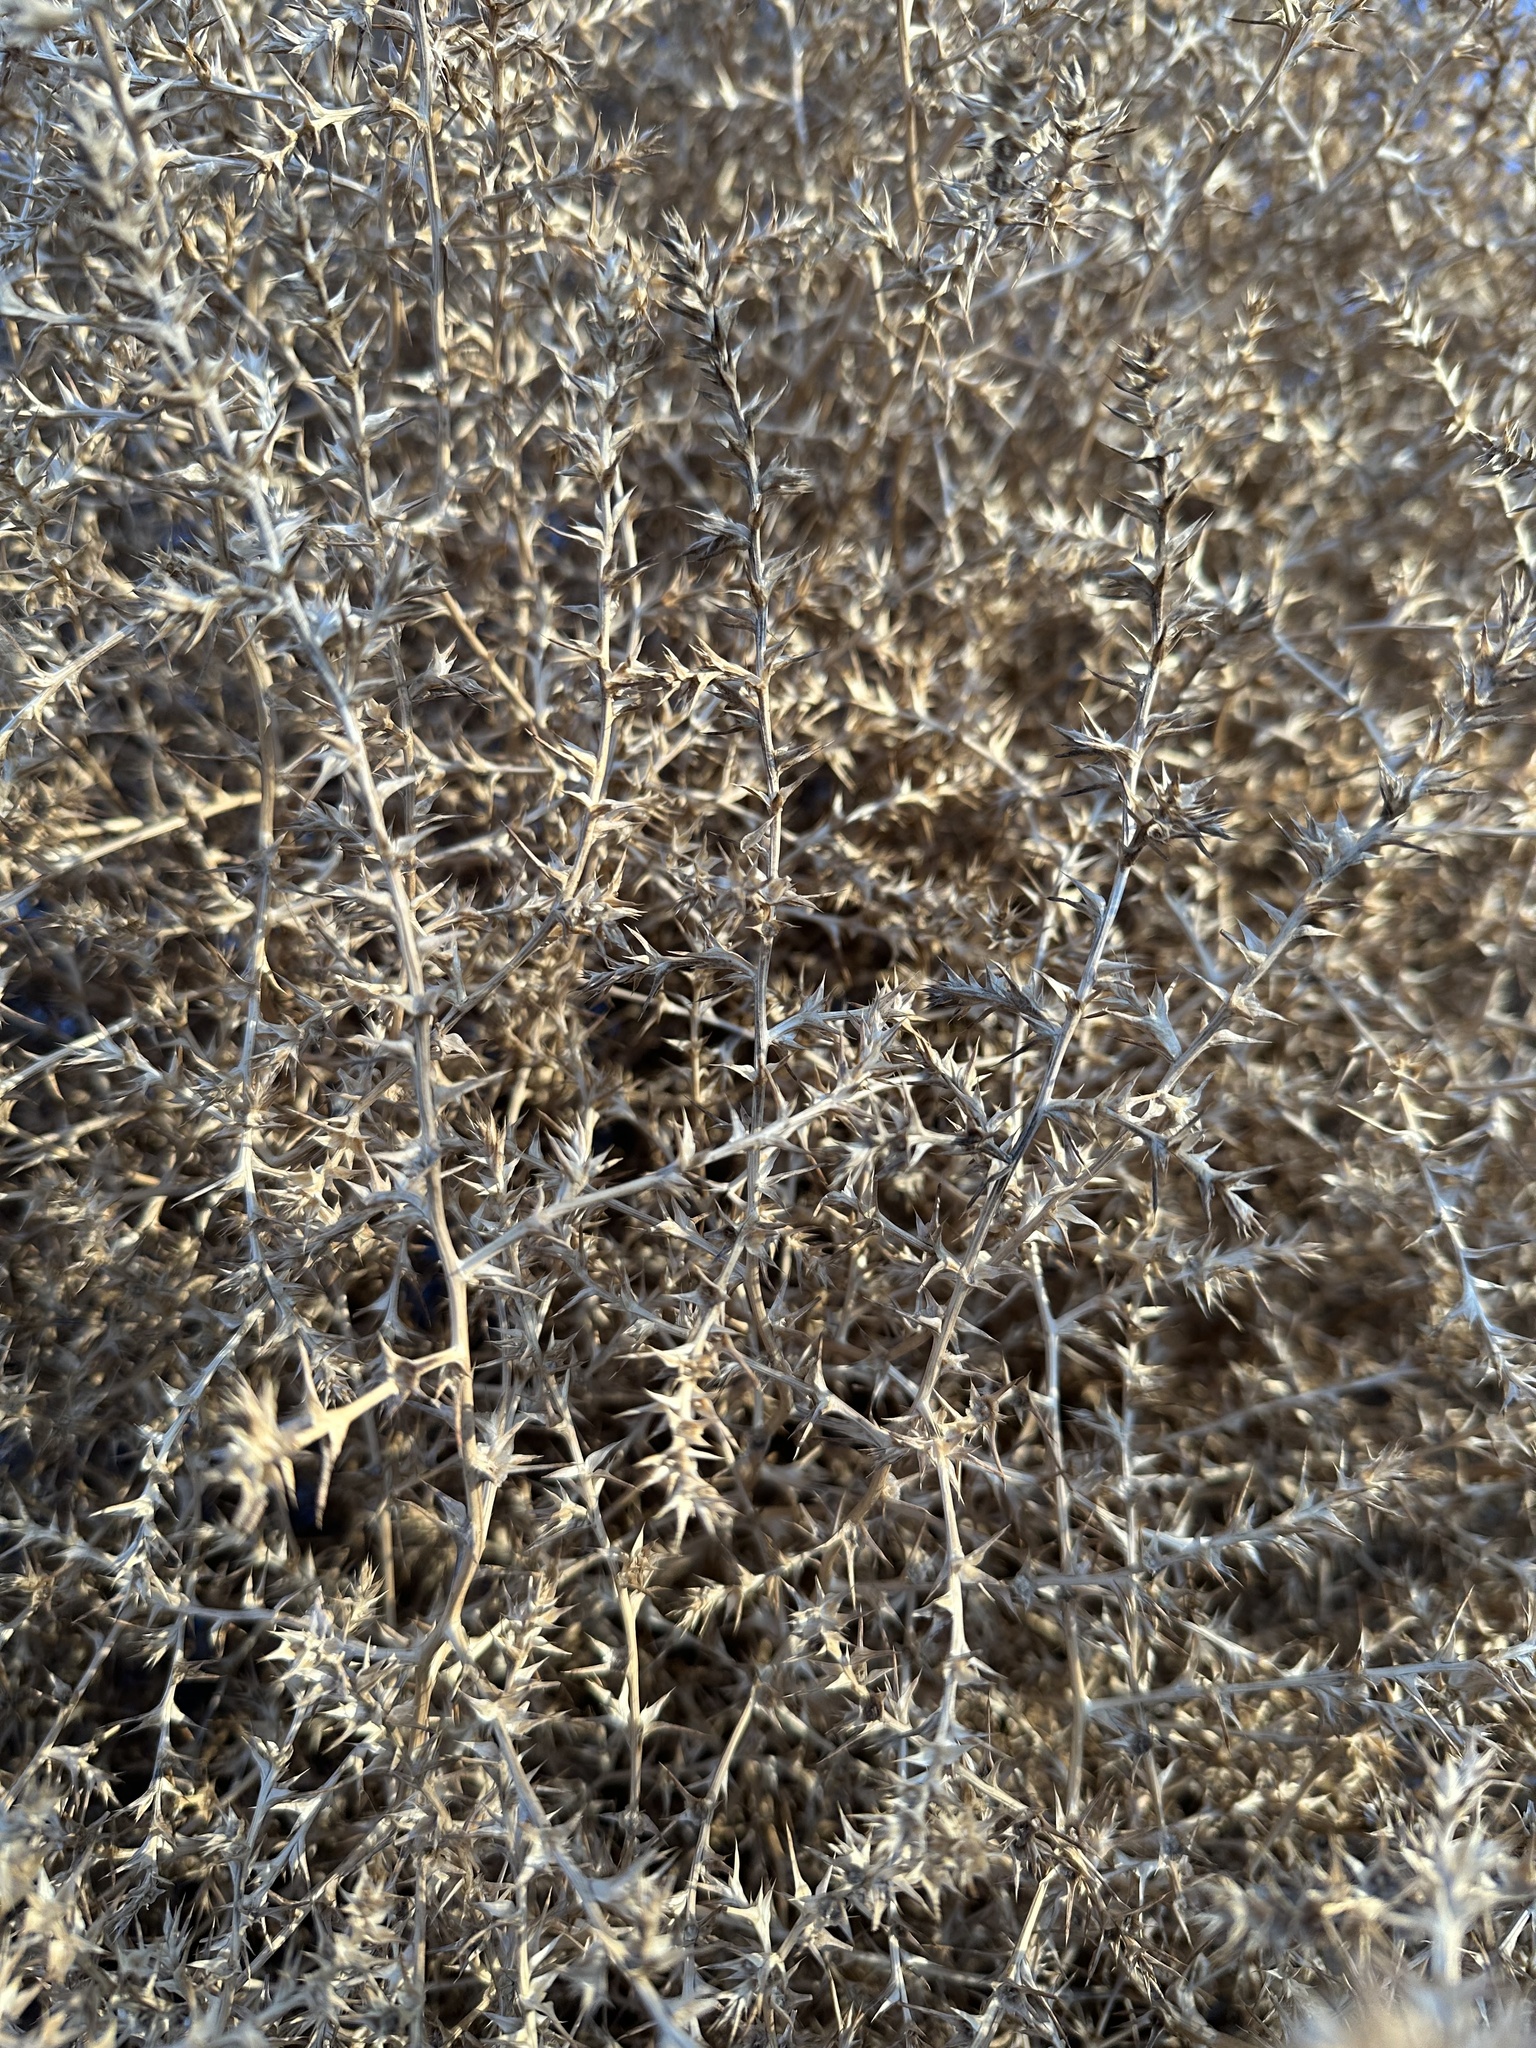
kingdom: Plantae
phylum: Tracheophyta
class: Magnoliopsida
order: Caryophyllales
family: Amaranthaceae
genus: Salsola
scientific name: Salsola tragus
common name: Prickly russian thistle
